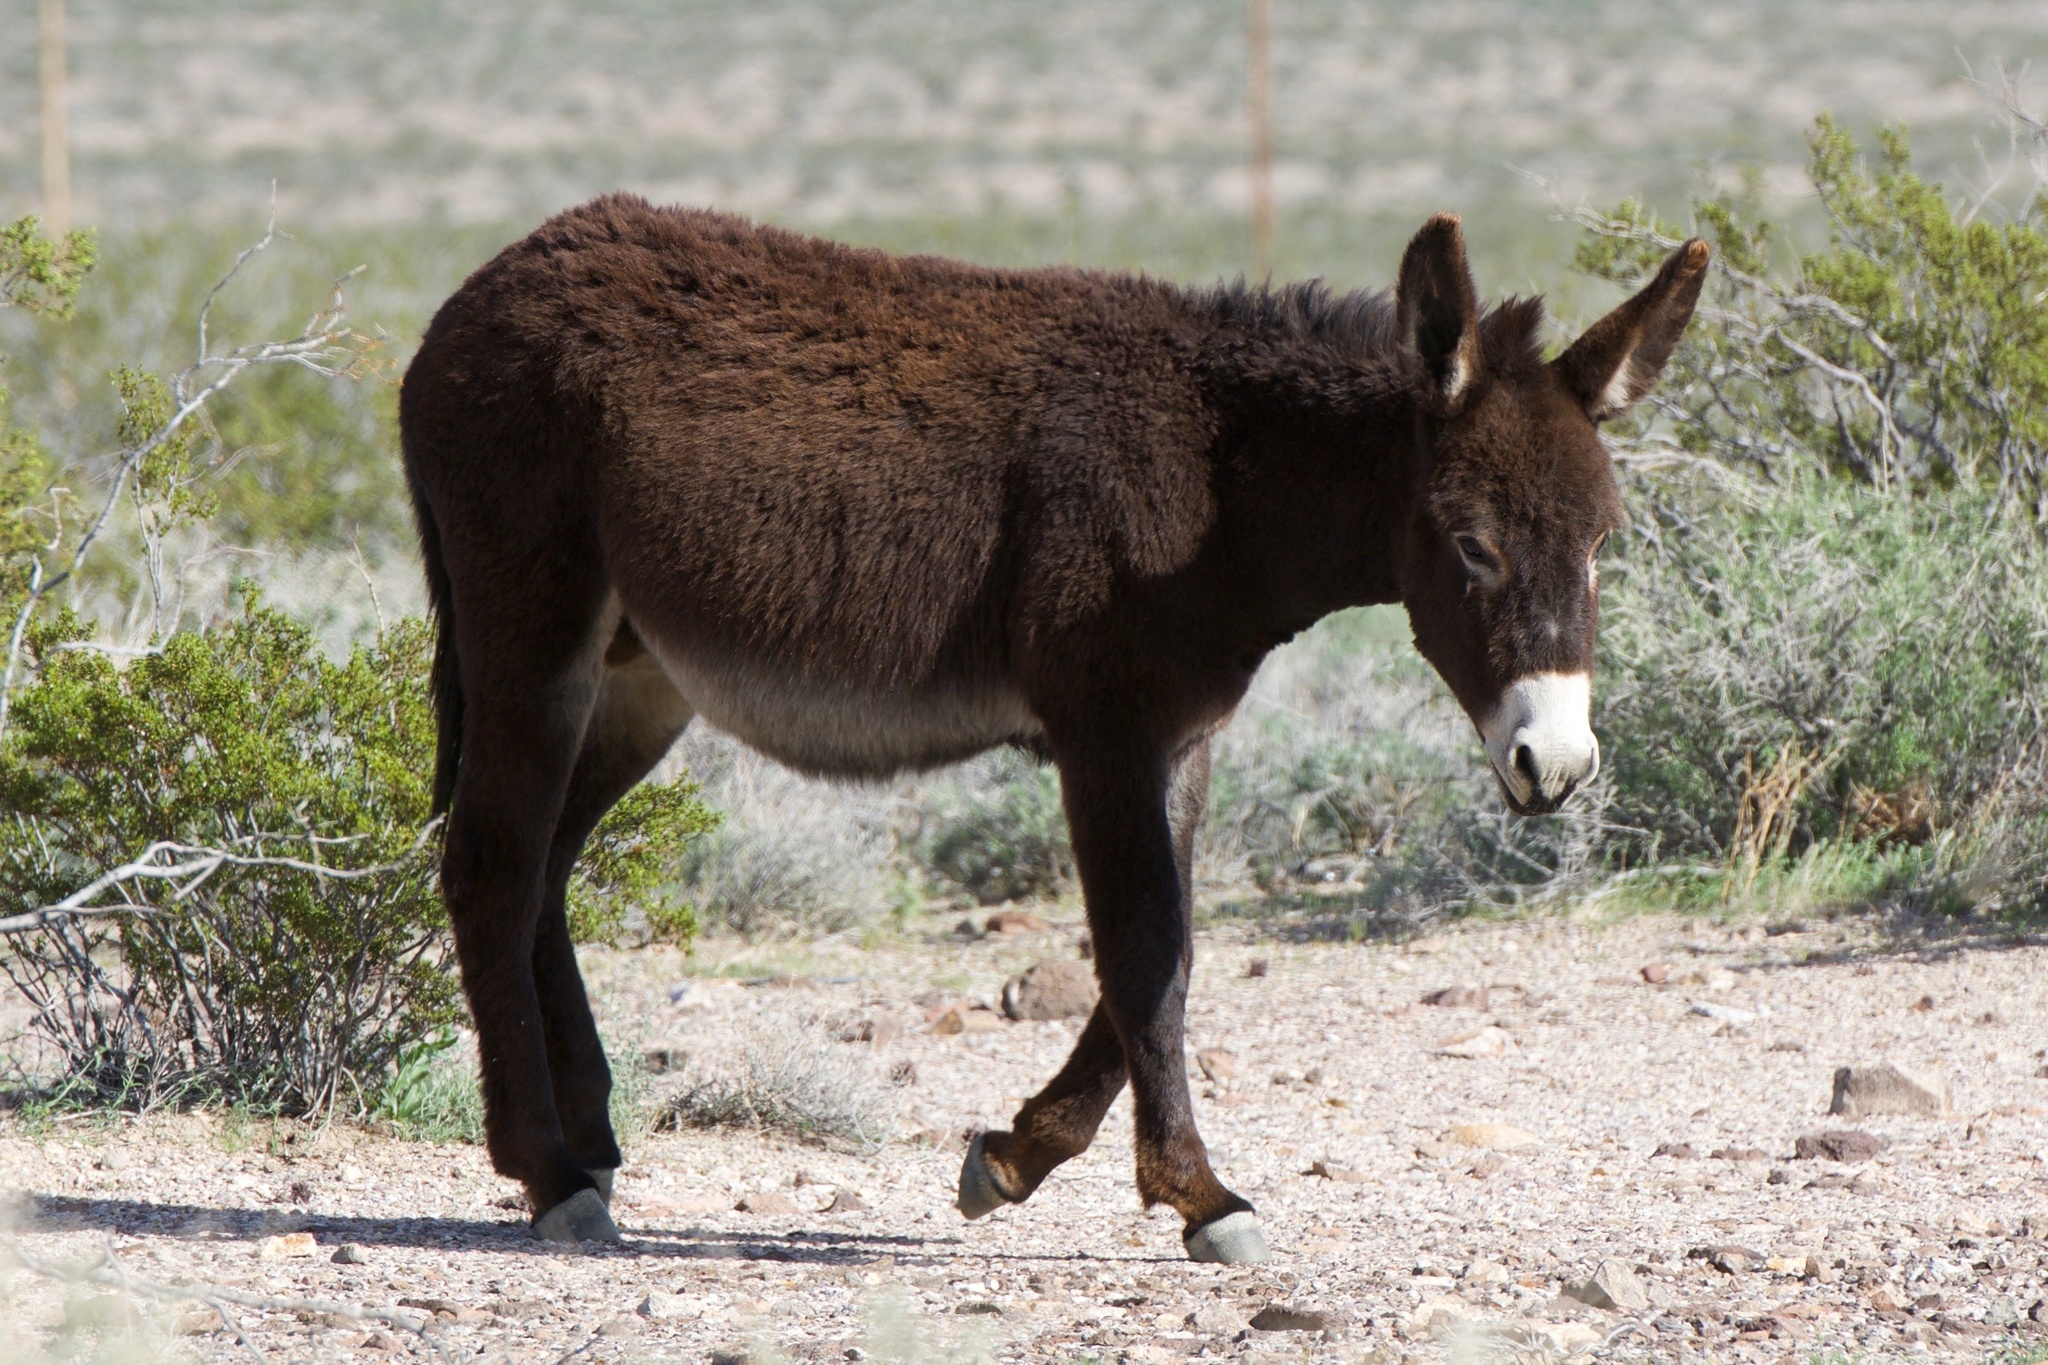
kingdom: Animalia
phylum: Chordata
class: Mammalia
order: Perissodactyla
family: Equidae
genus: Equus
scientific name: Equus asinus
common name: Ass
